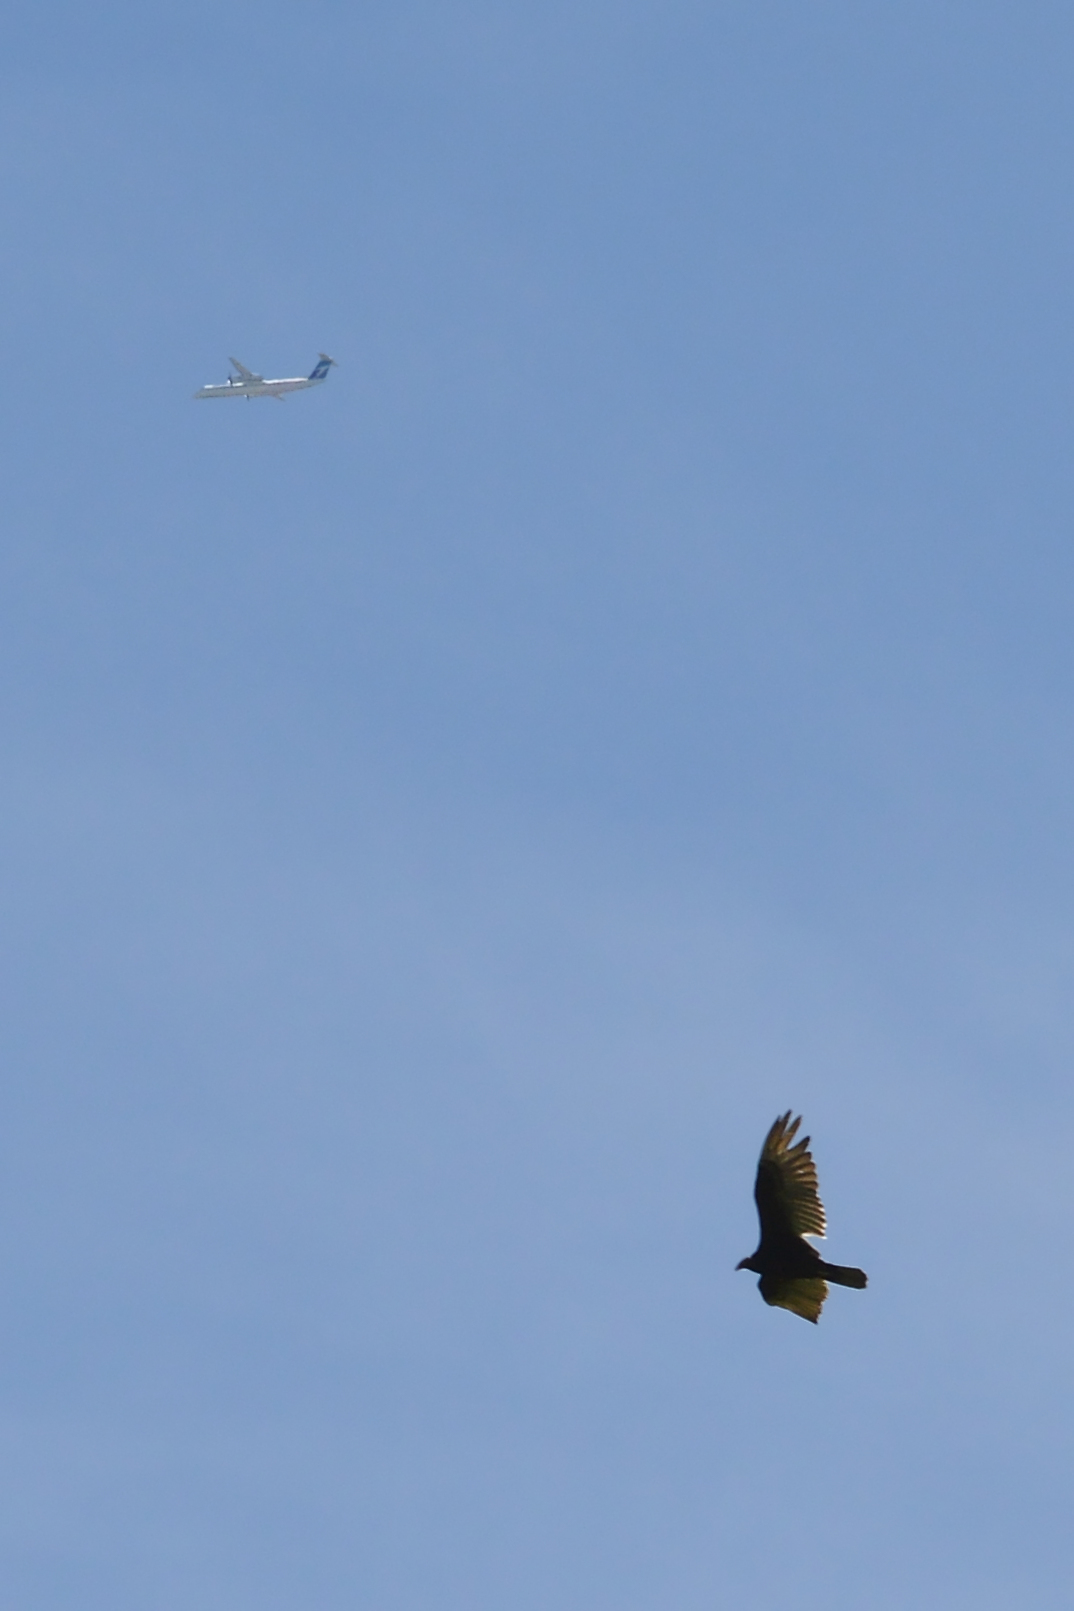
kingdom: Animalia
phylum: Chordata
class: Aves
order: Accipitriformes
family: Cathartidae
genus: Cathartes
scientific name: Cathartes aura
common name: Turkey vulture
